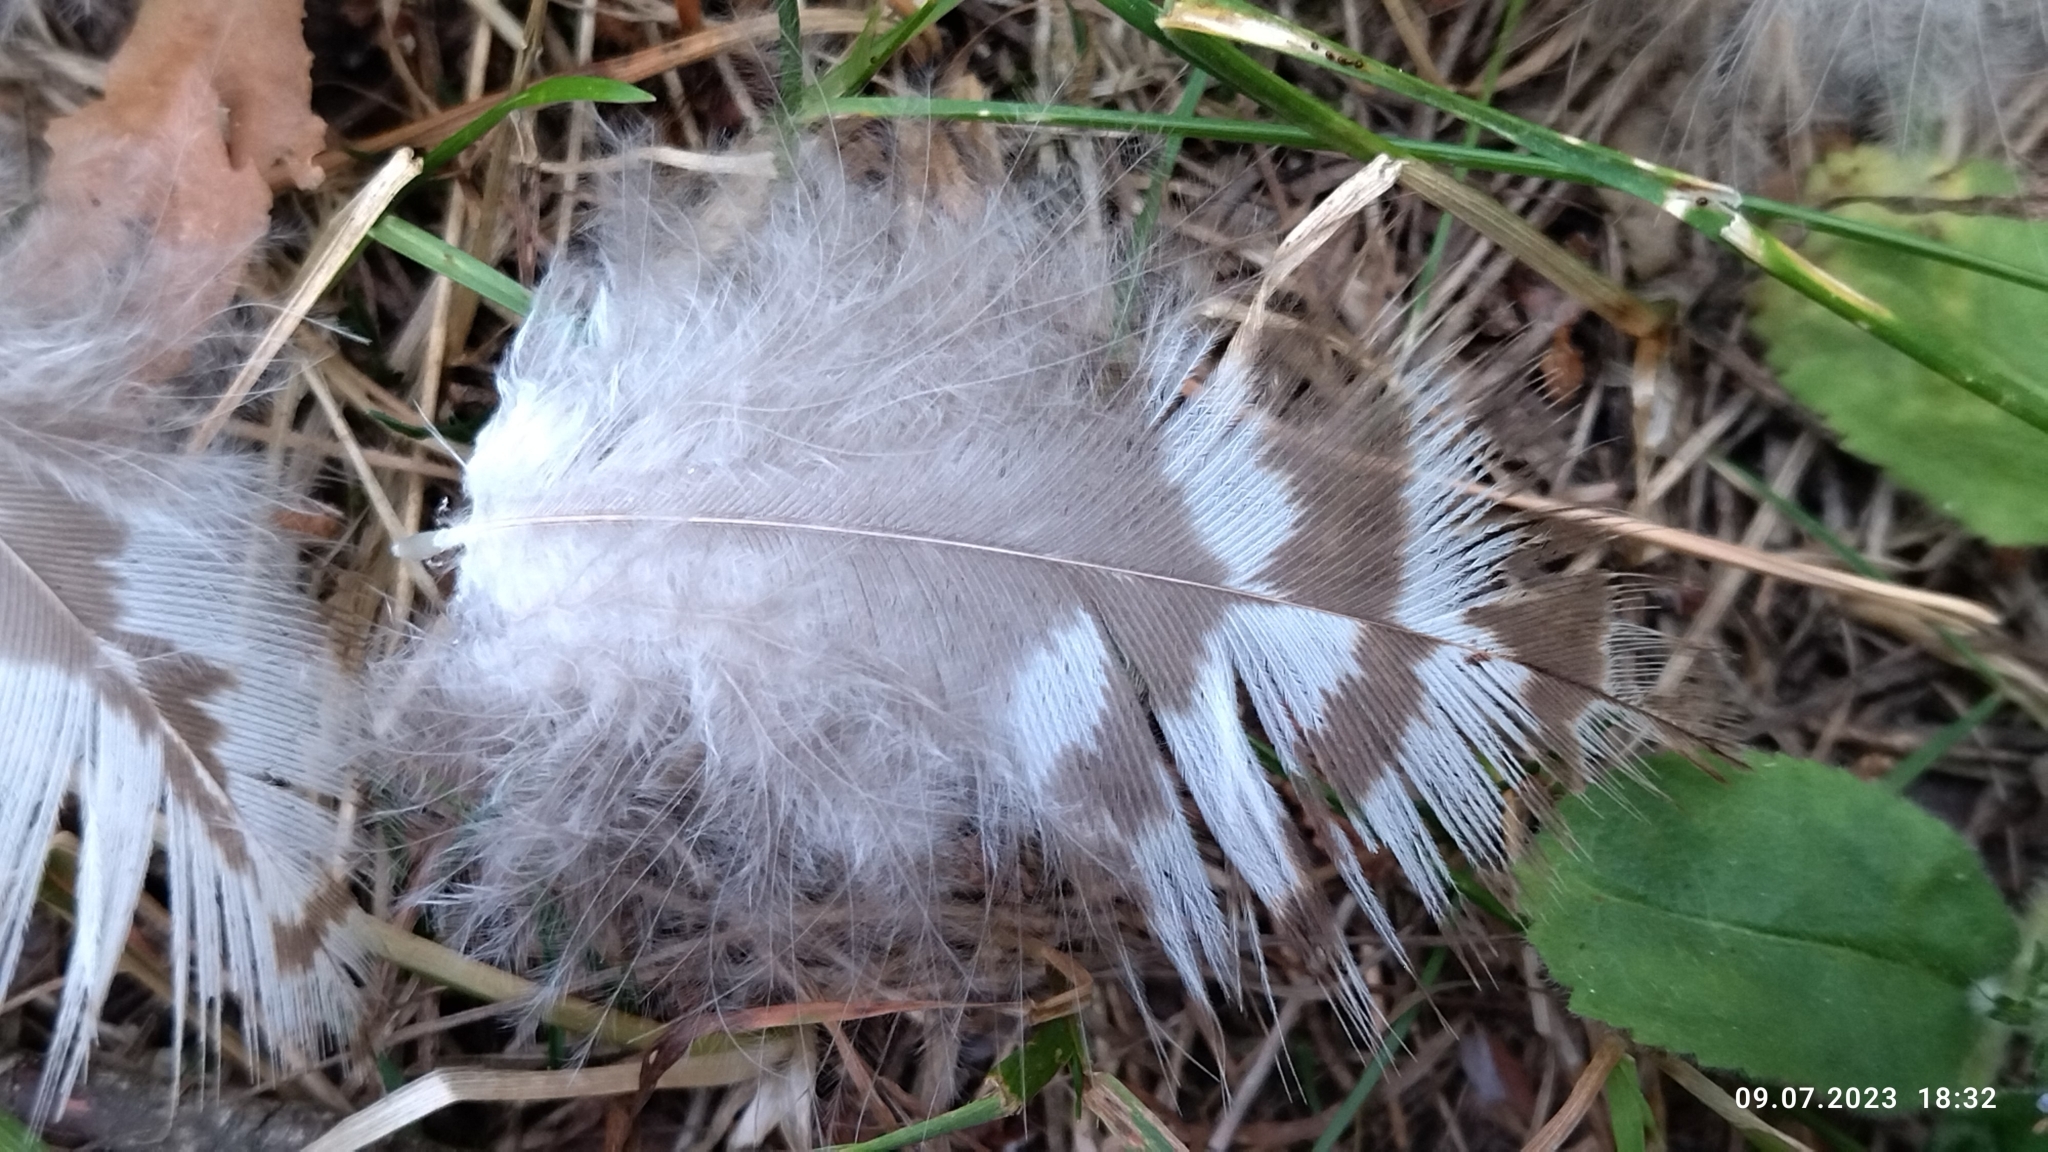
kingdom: Animalia
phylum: Chordata
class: Aves
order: Accipitriformes
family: Accipitridae
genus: Buteo
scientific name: Buteo buteo
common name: Common buzzard
